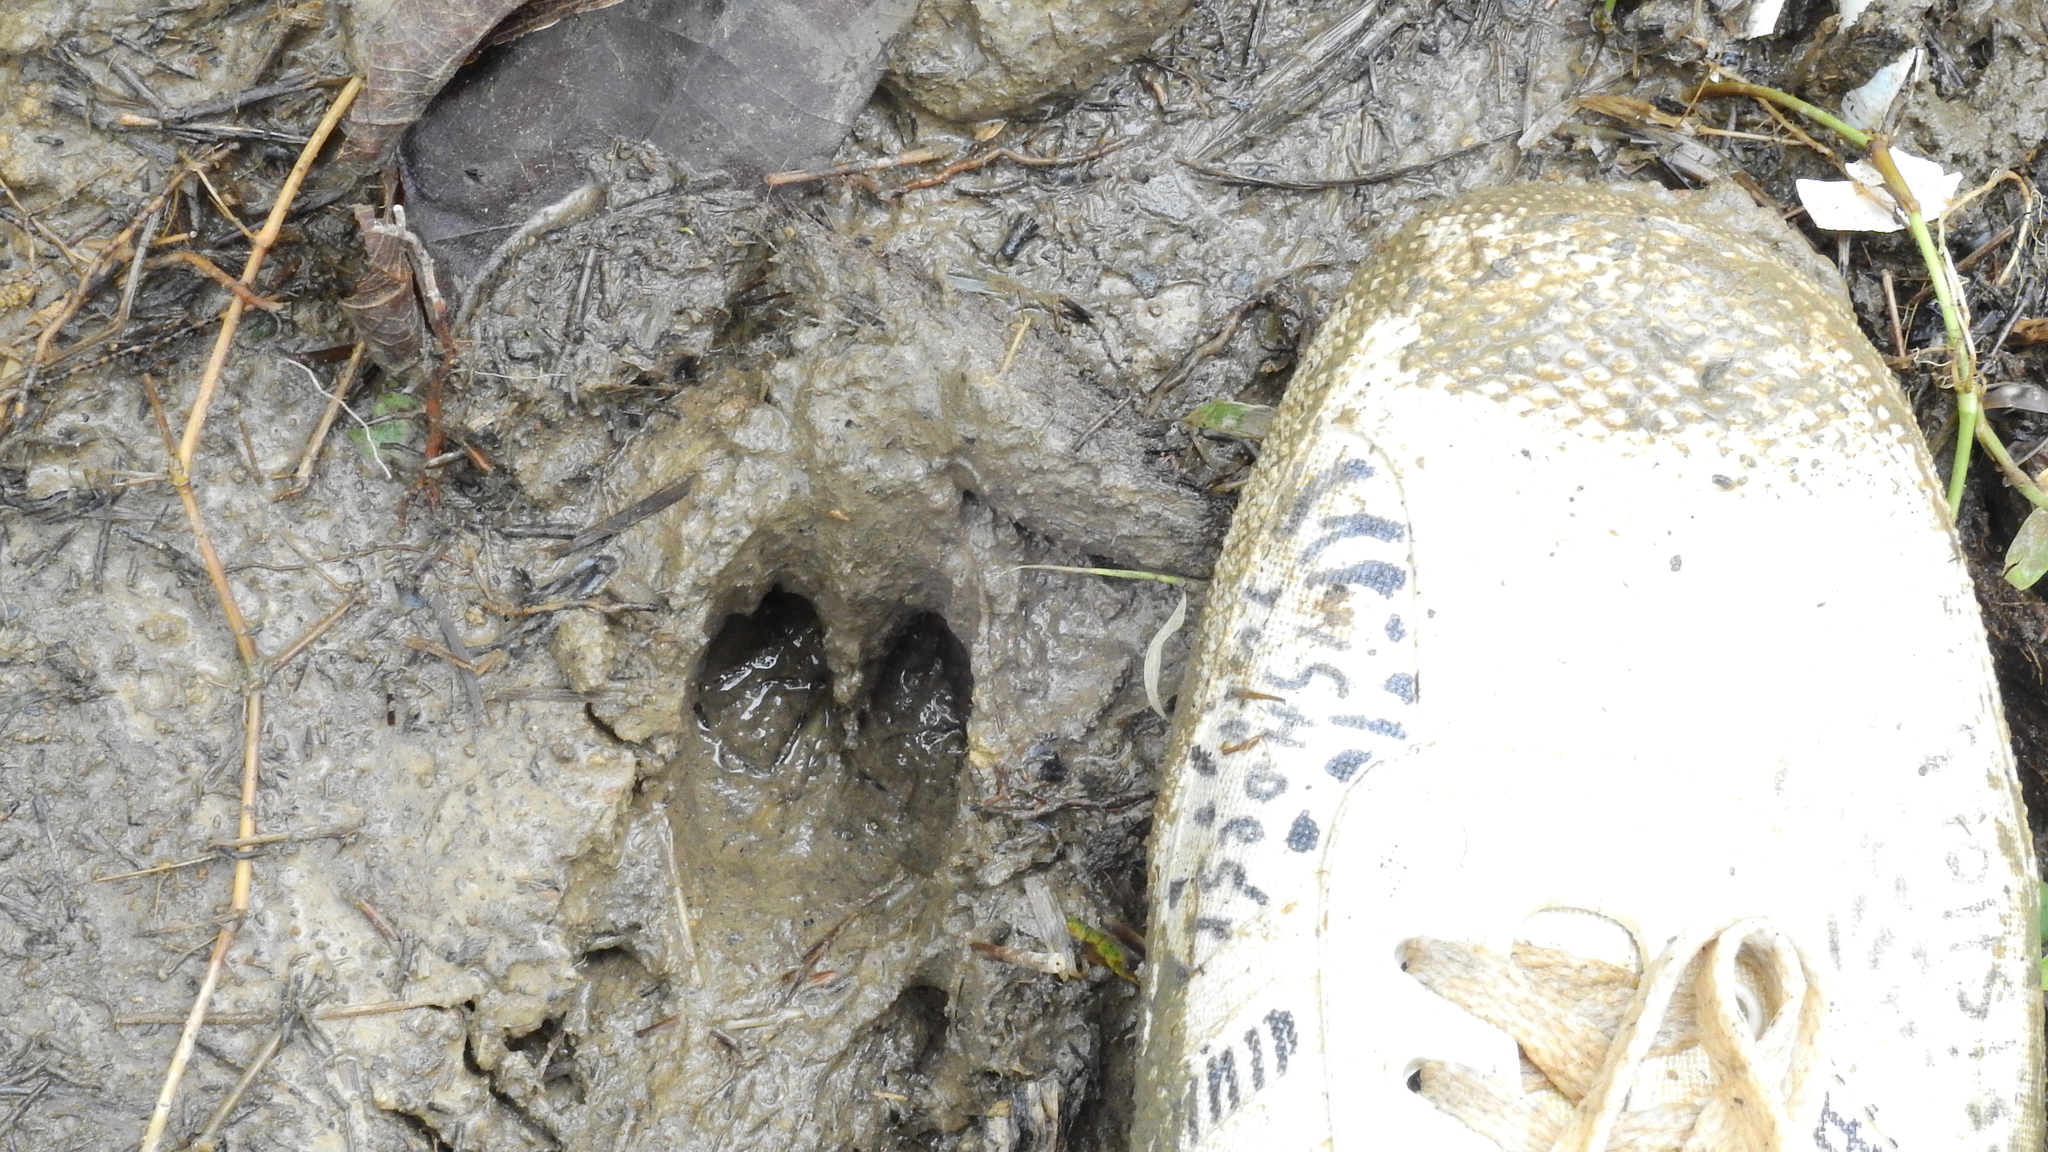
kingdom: Animalia
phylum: Chordata
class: Mammalia
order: Artiodactyla
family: Suidae
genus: Sus
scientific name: Sus celebensis
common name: Celebes warty pig
